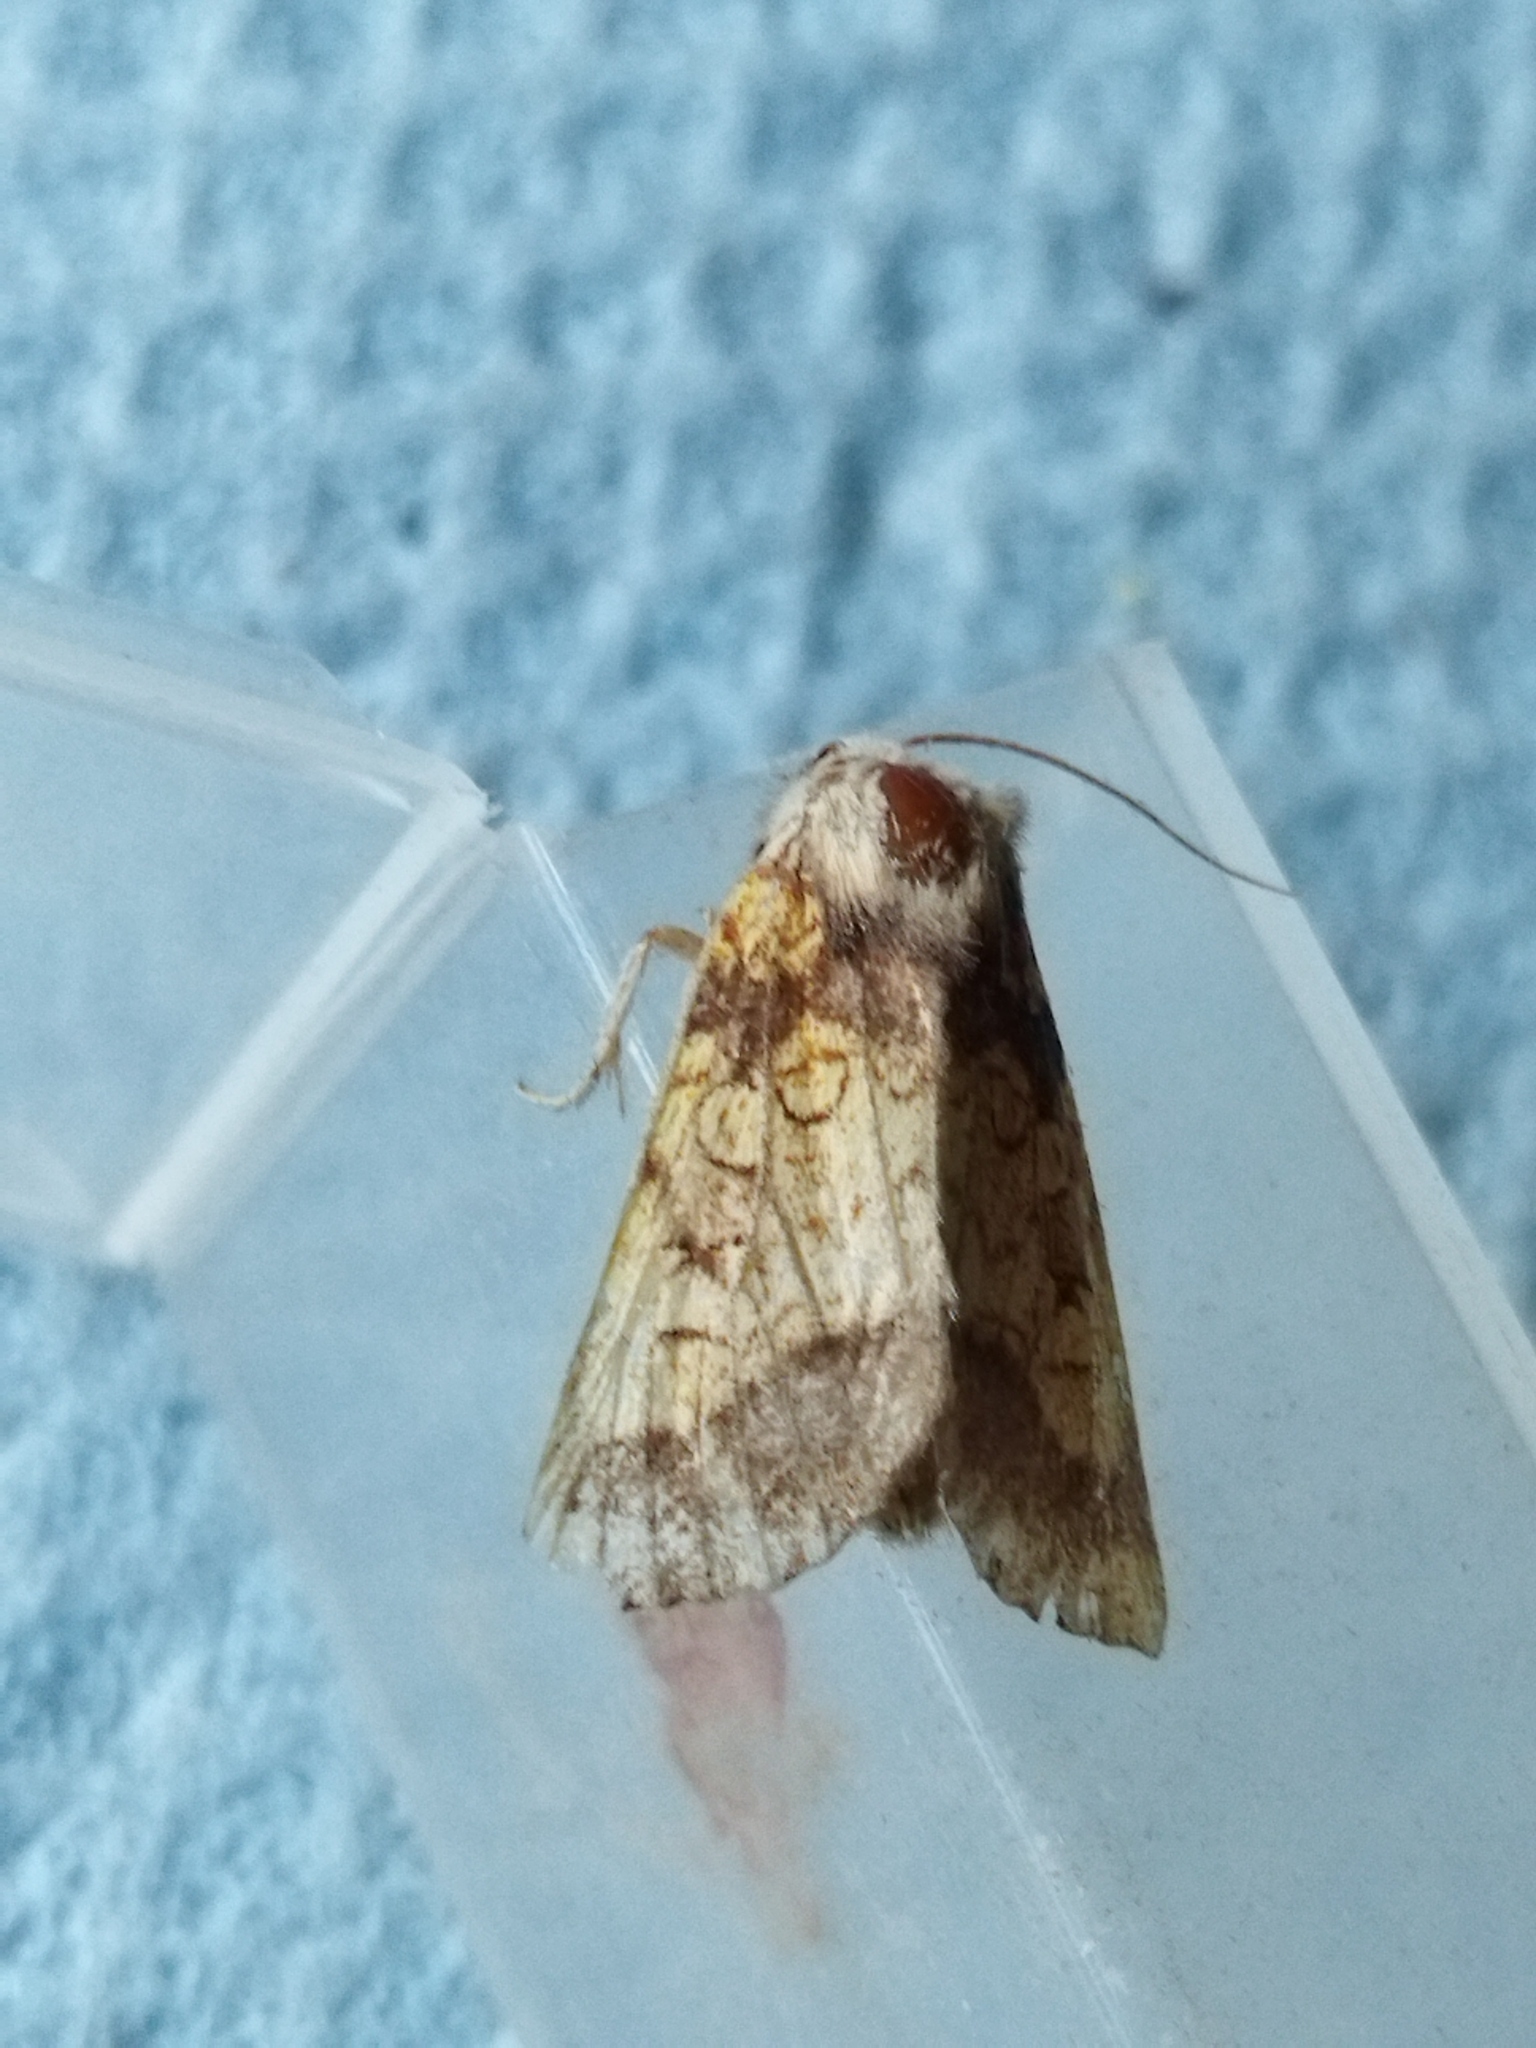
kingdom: Animalia
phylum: Arthropoda
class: Insecta
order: Lepidoptera
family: Noctuidae
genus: Gortyna
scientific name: Gortyna flavago
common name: Frosted orange
